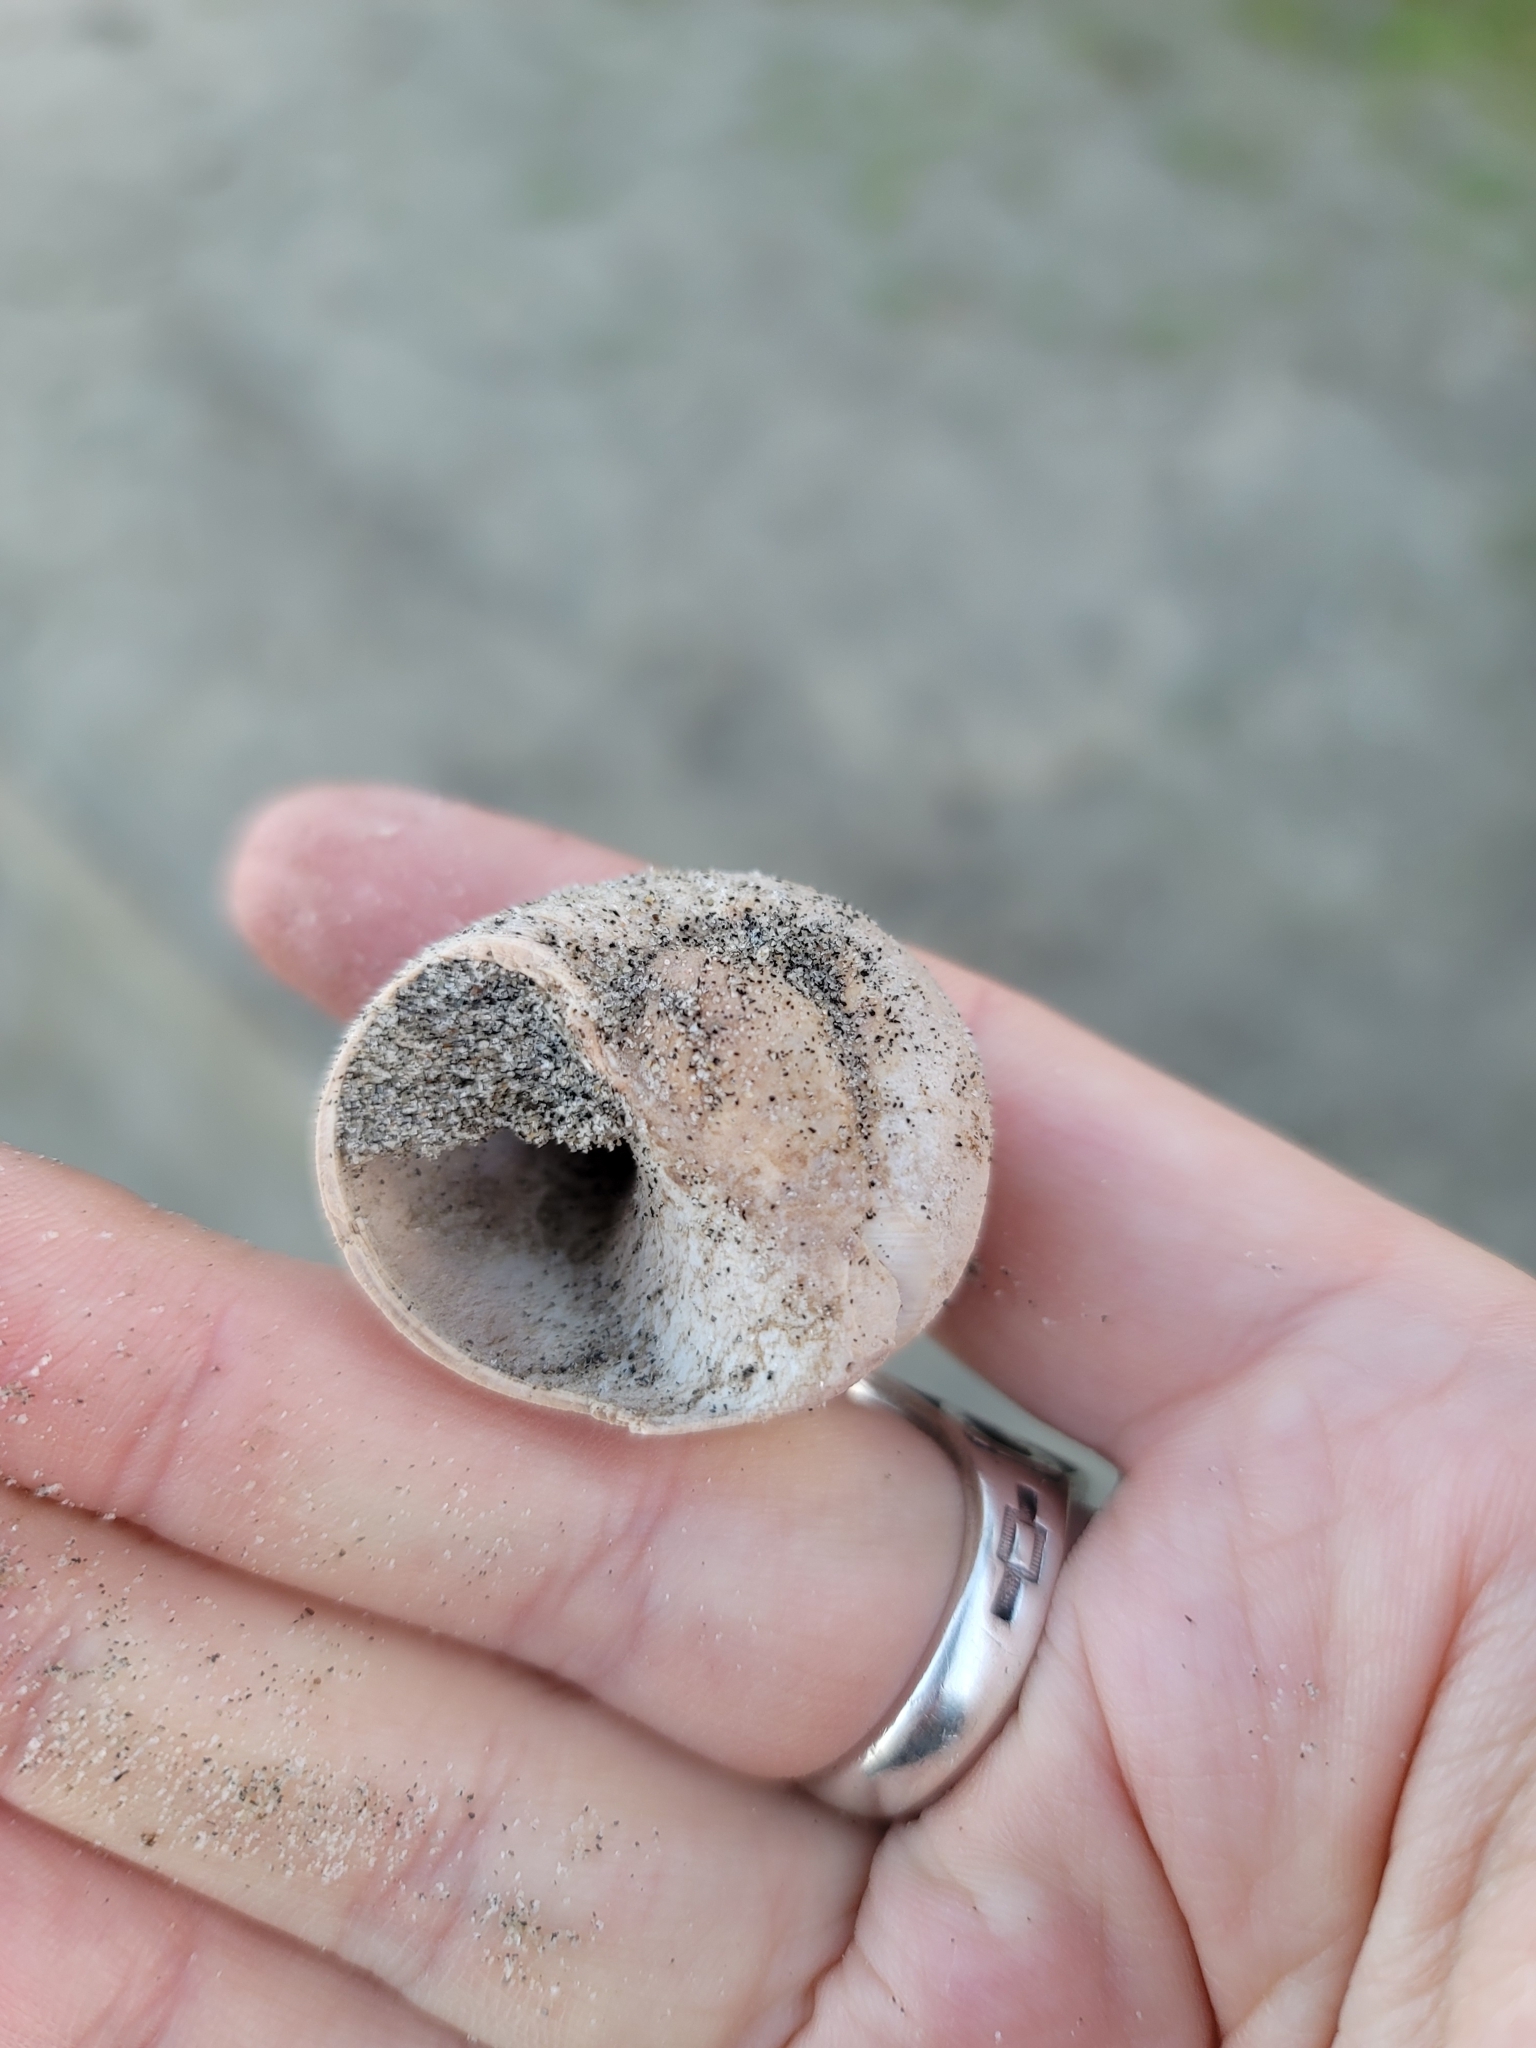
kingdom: Animalia
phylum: Mollusca
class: Gastropoda
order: Littorinimorpha
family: Naticidae
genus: Glossaulax
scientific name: Glossaulax reclusiana
